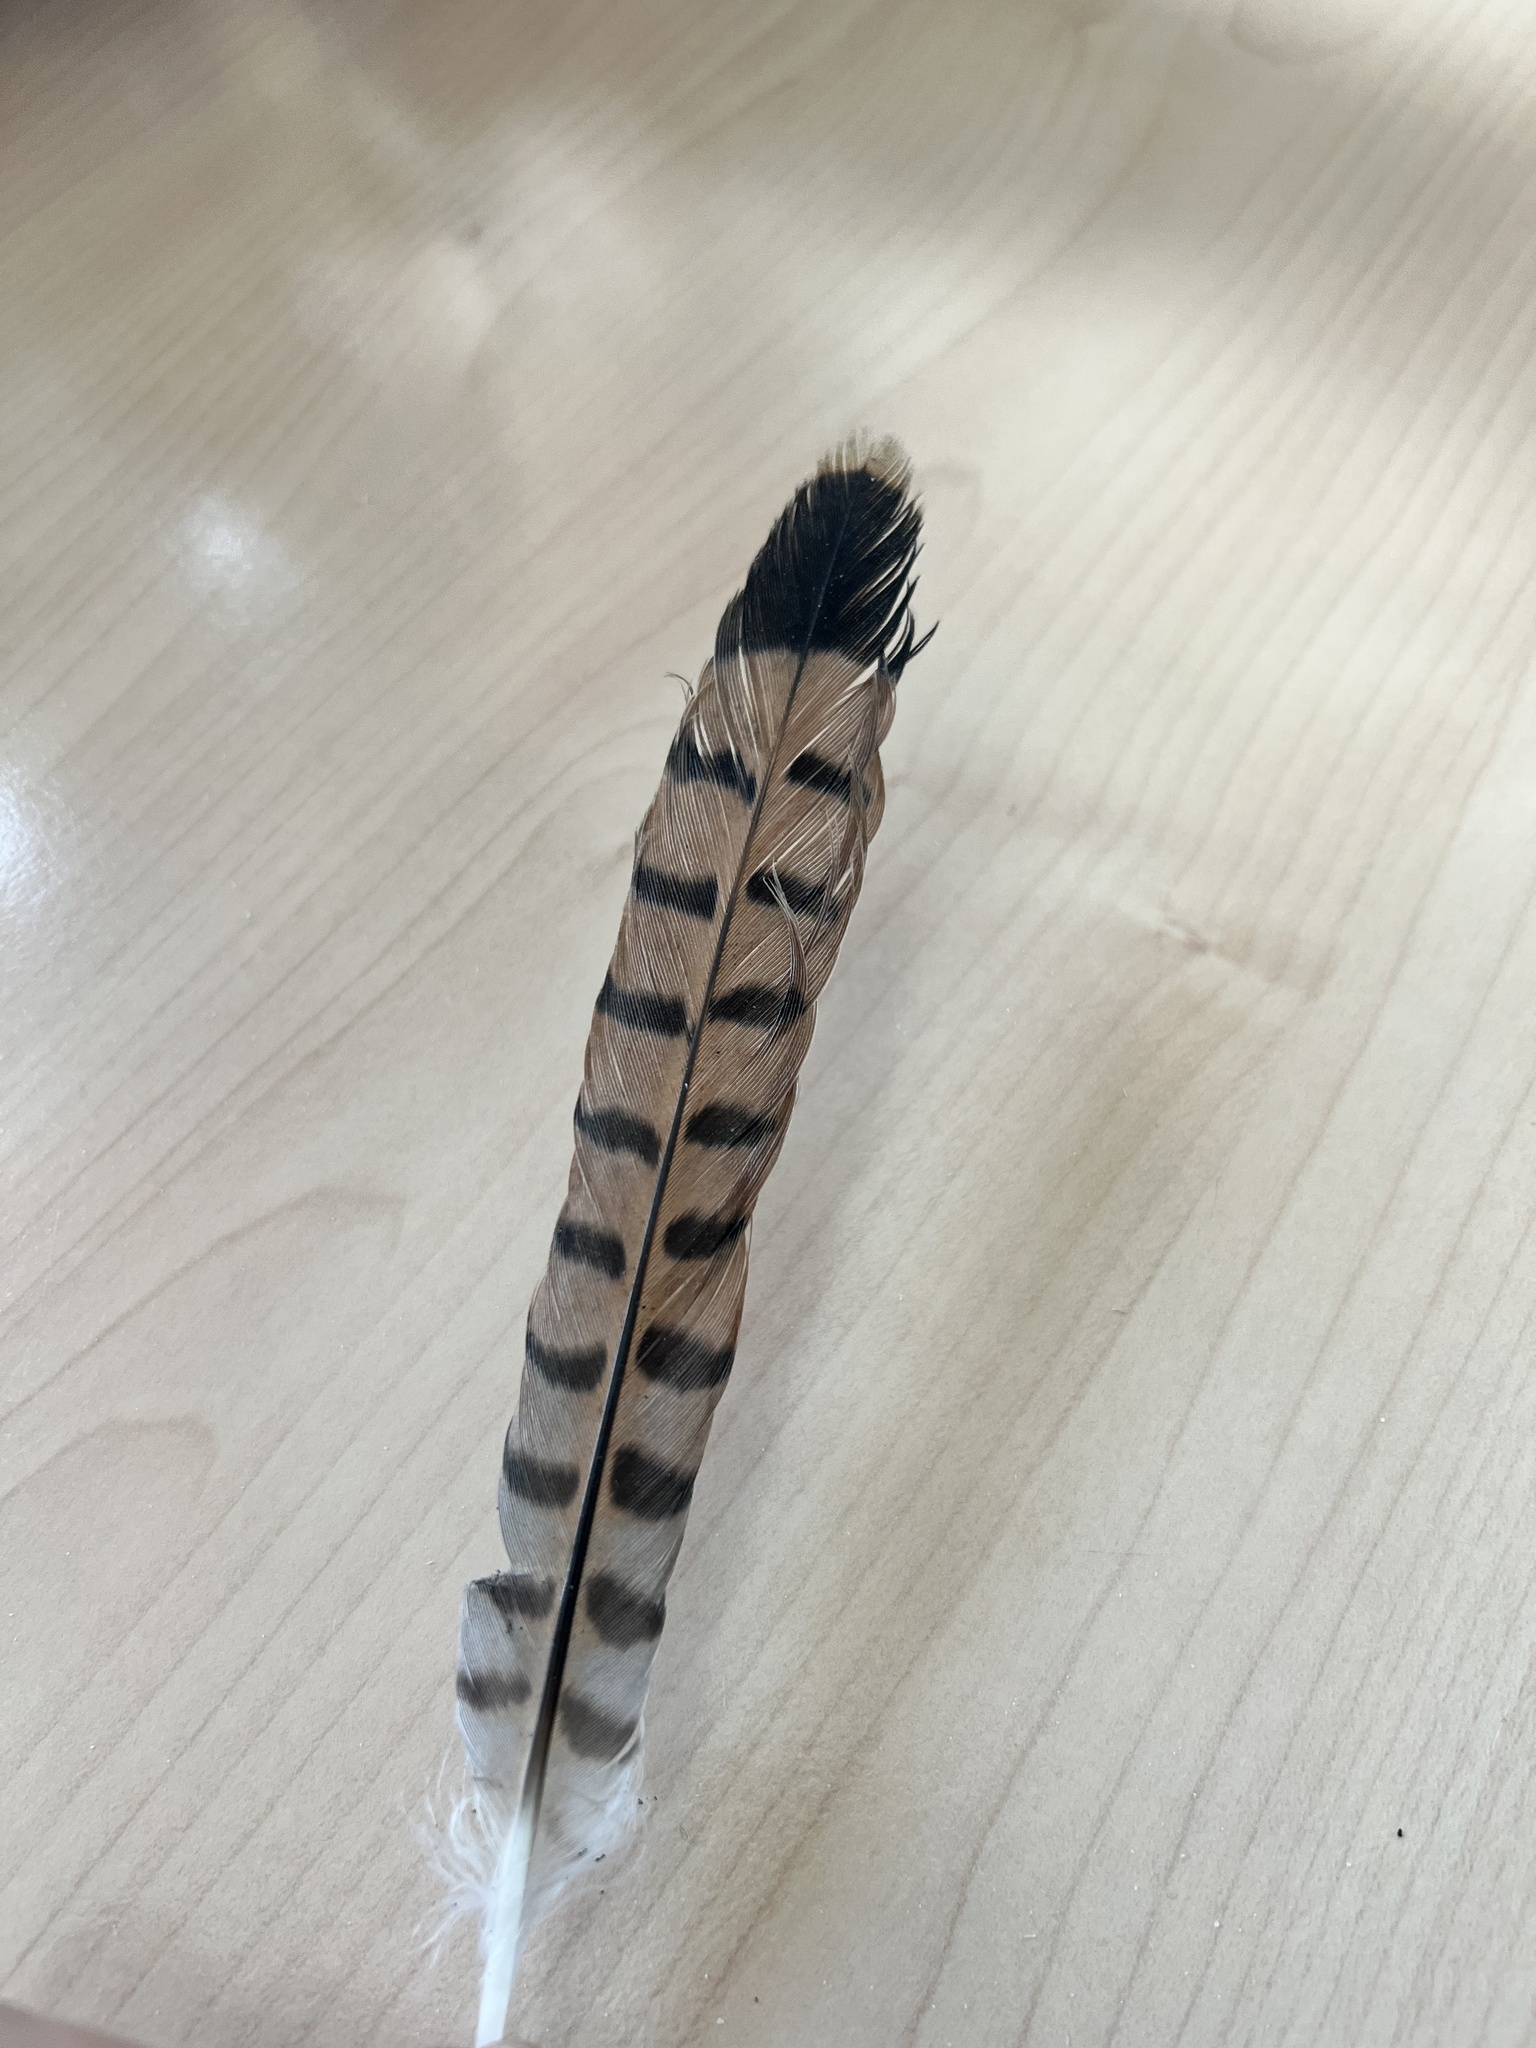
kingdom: Animalia
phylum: Chordata
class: Aves
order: Falconiformes
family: Falconidae
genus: Falco
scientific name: Falco tinnunculus
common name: Common kestrel
